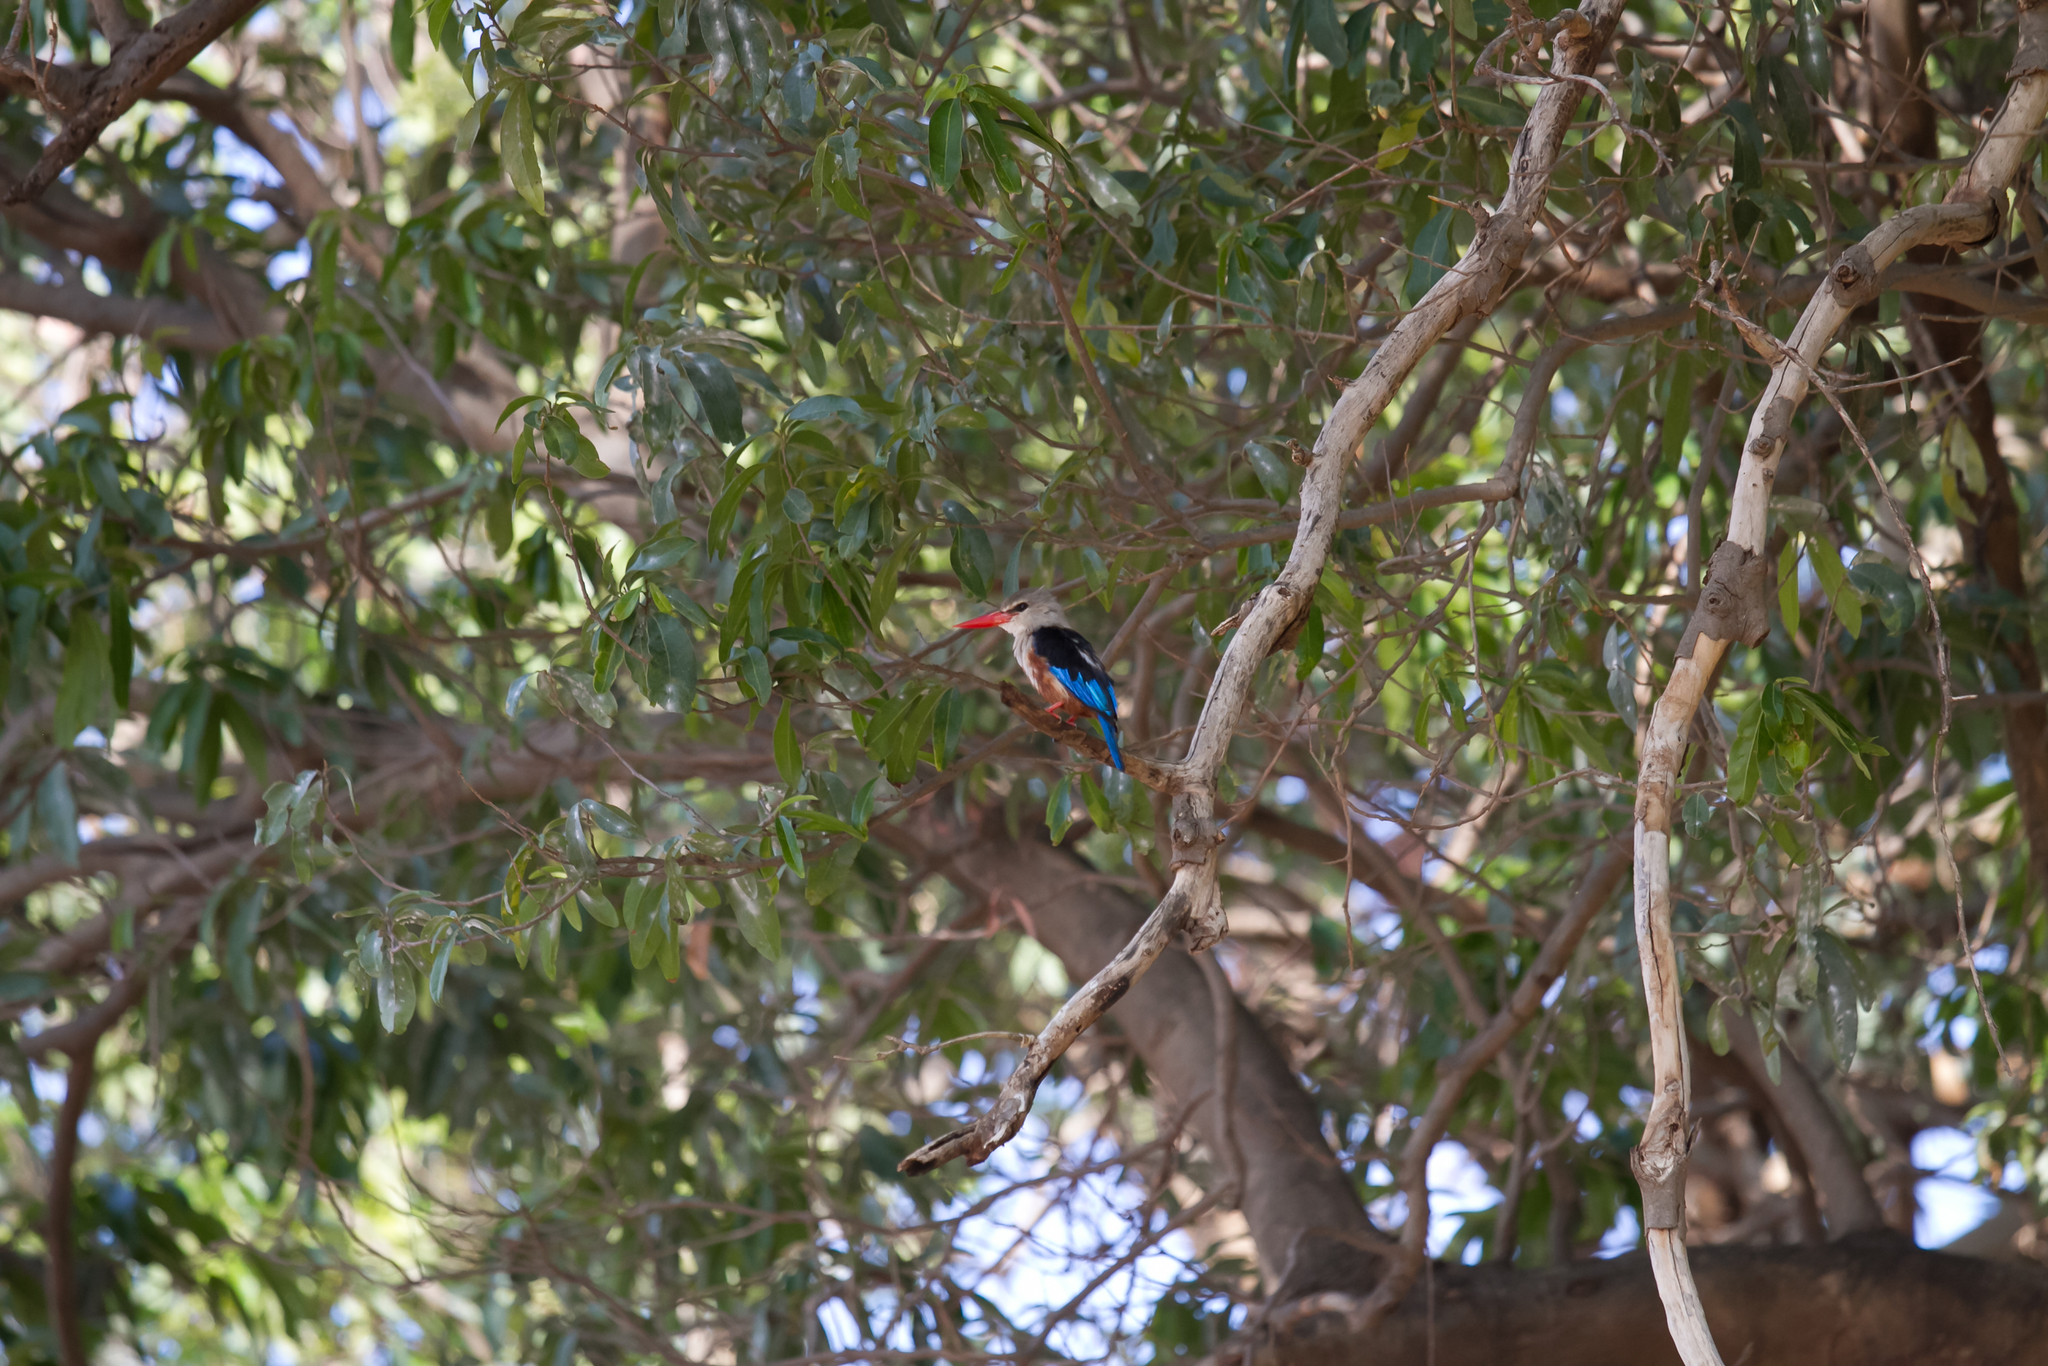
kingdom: Animalia
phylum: Chordata
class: Aves
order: Coraciiformes
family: Alcedinidae
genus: Halcyon
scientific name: Halcyon leucocephala
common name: Grey-headed kingfisher
